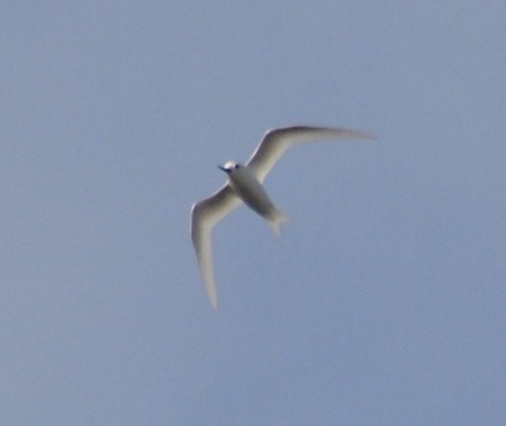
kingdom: Animalia
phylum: Chordata
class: Aves
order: Charadriiformes
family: Laridae
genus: Gygis
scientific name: Gygis alba
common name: White tern
